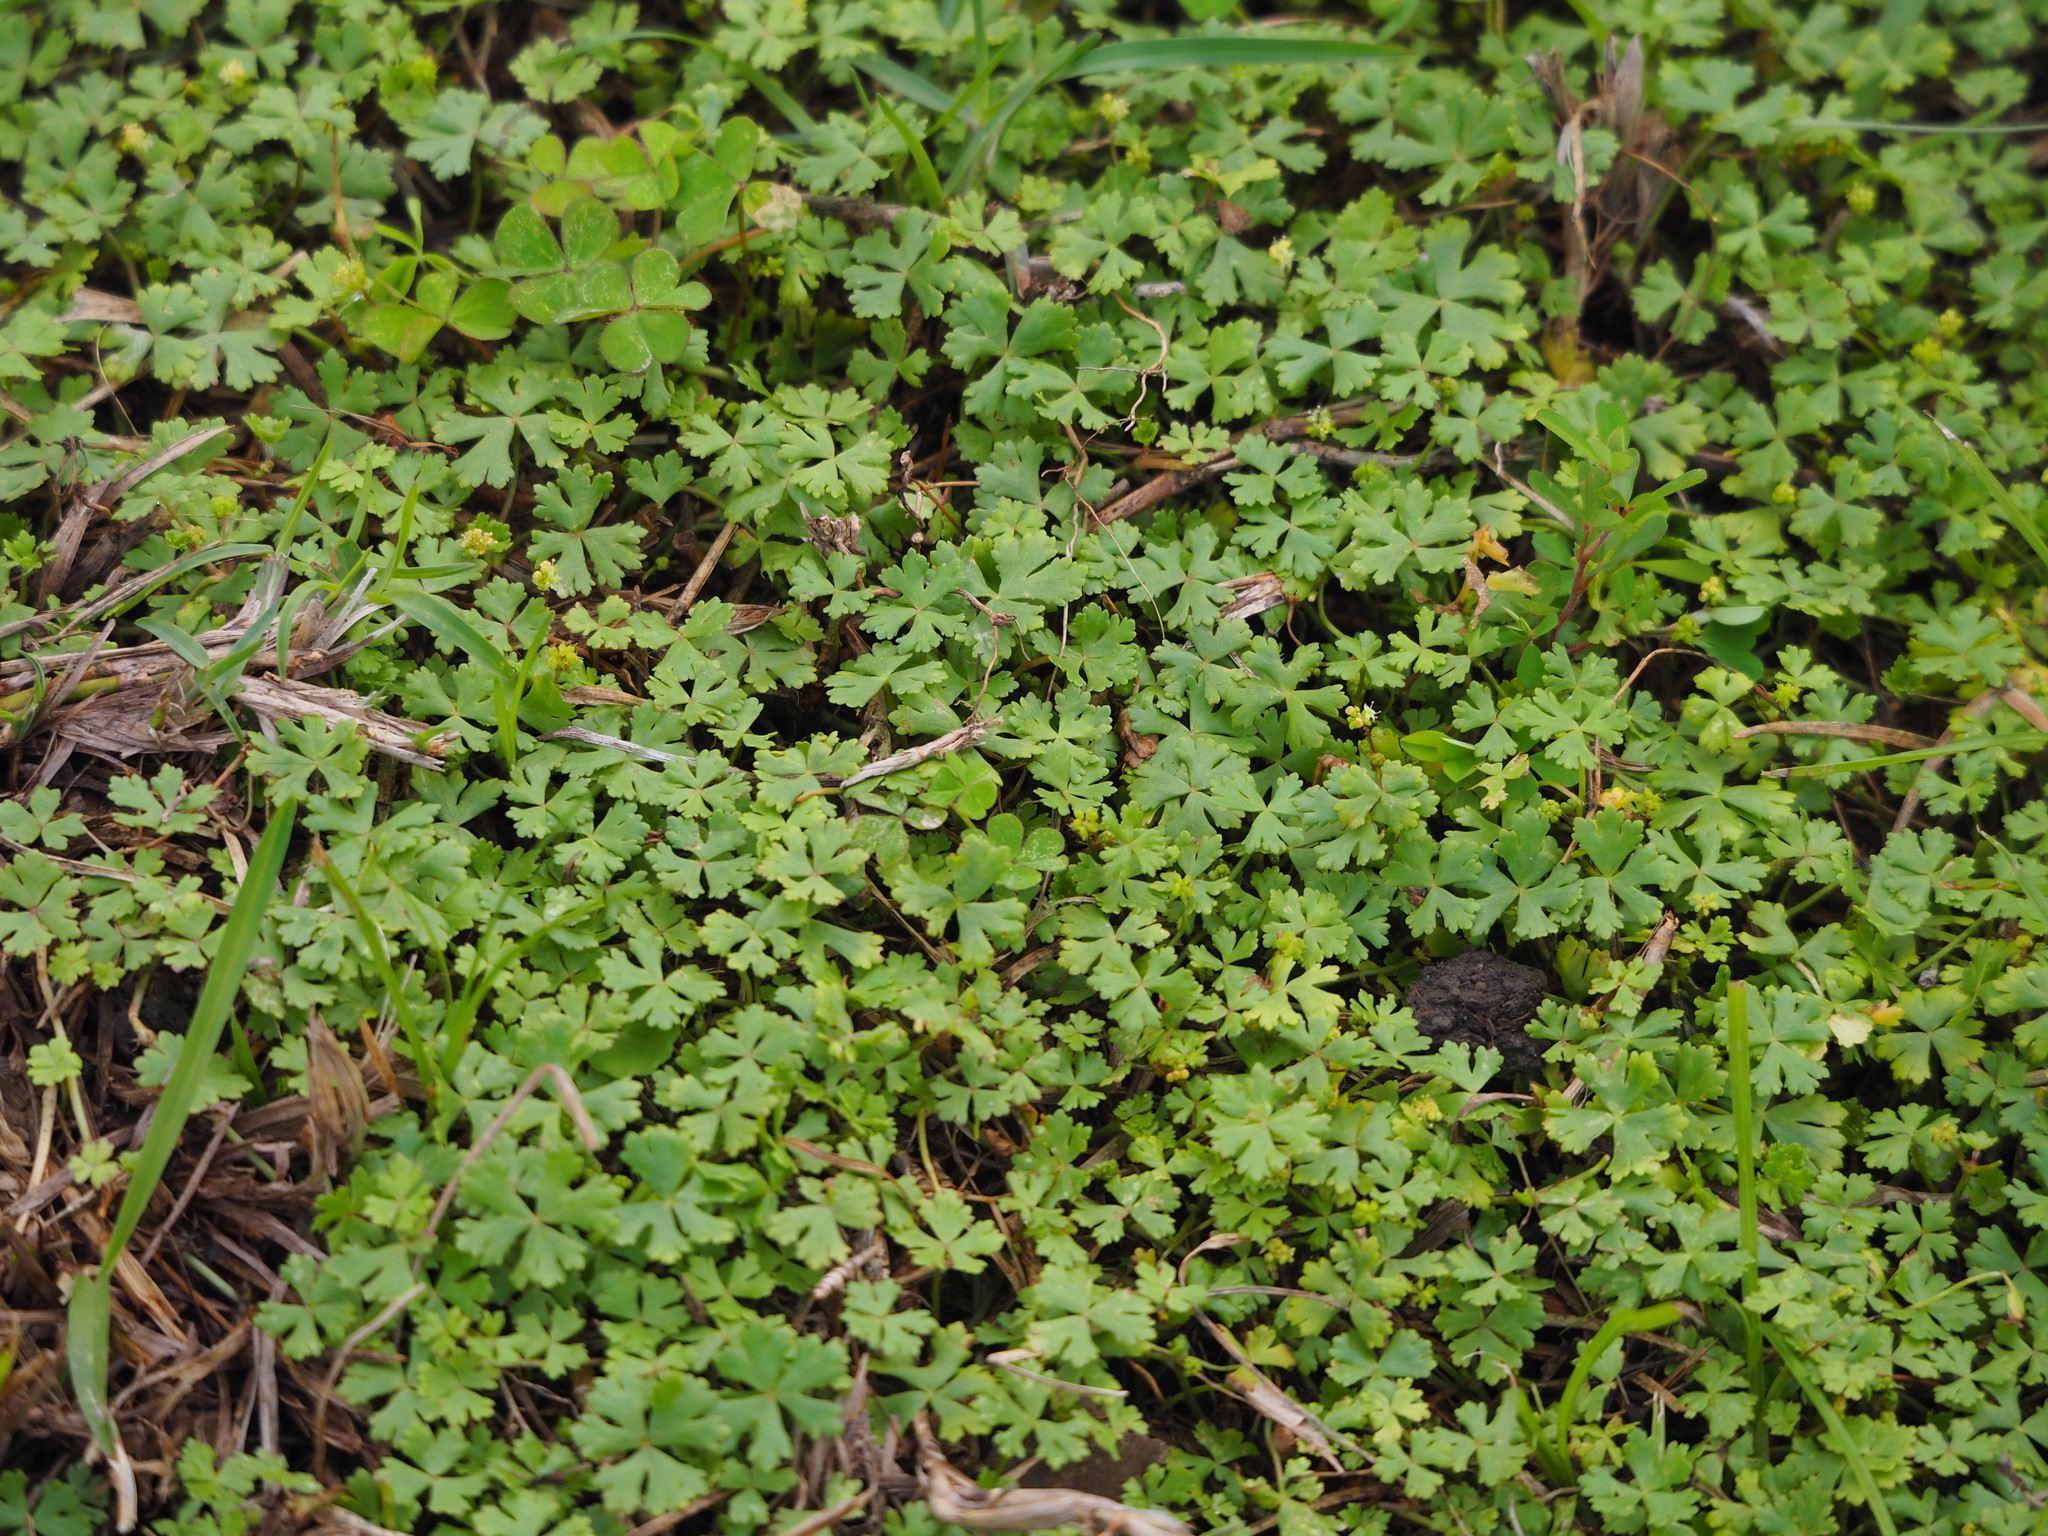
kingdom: Plantae
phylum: Tracheophyta
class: Magnoliopsida
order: Apiales
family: Araliaceae
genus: Hydrocotyle
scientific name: Hydrocotyle batrachium
